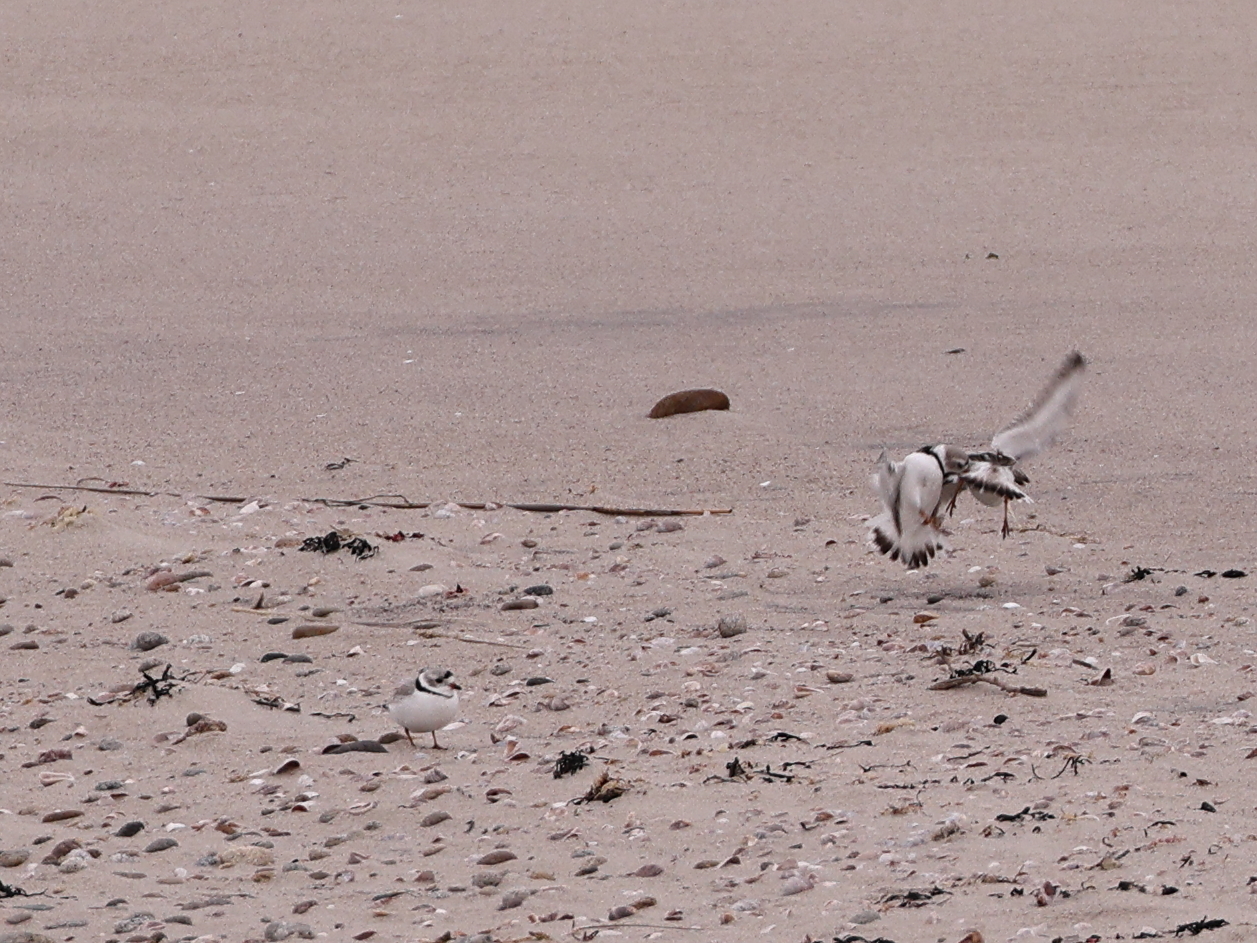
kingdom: Animalia
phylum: Chordata
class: Aves
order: Charadriiformes
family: Charadriidae
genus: Charadrius
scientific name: Charadrius melodus
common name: Piping plover
